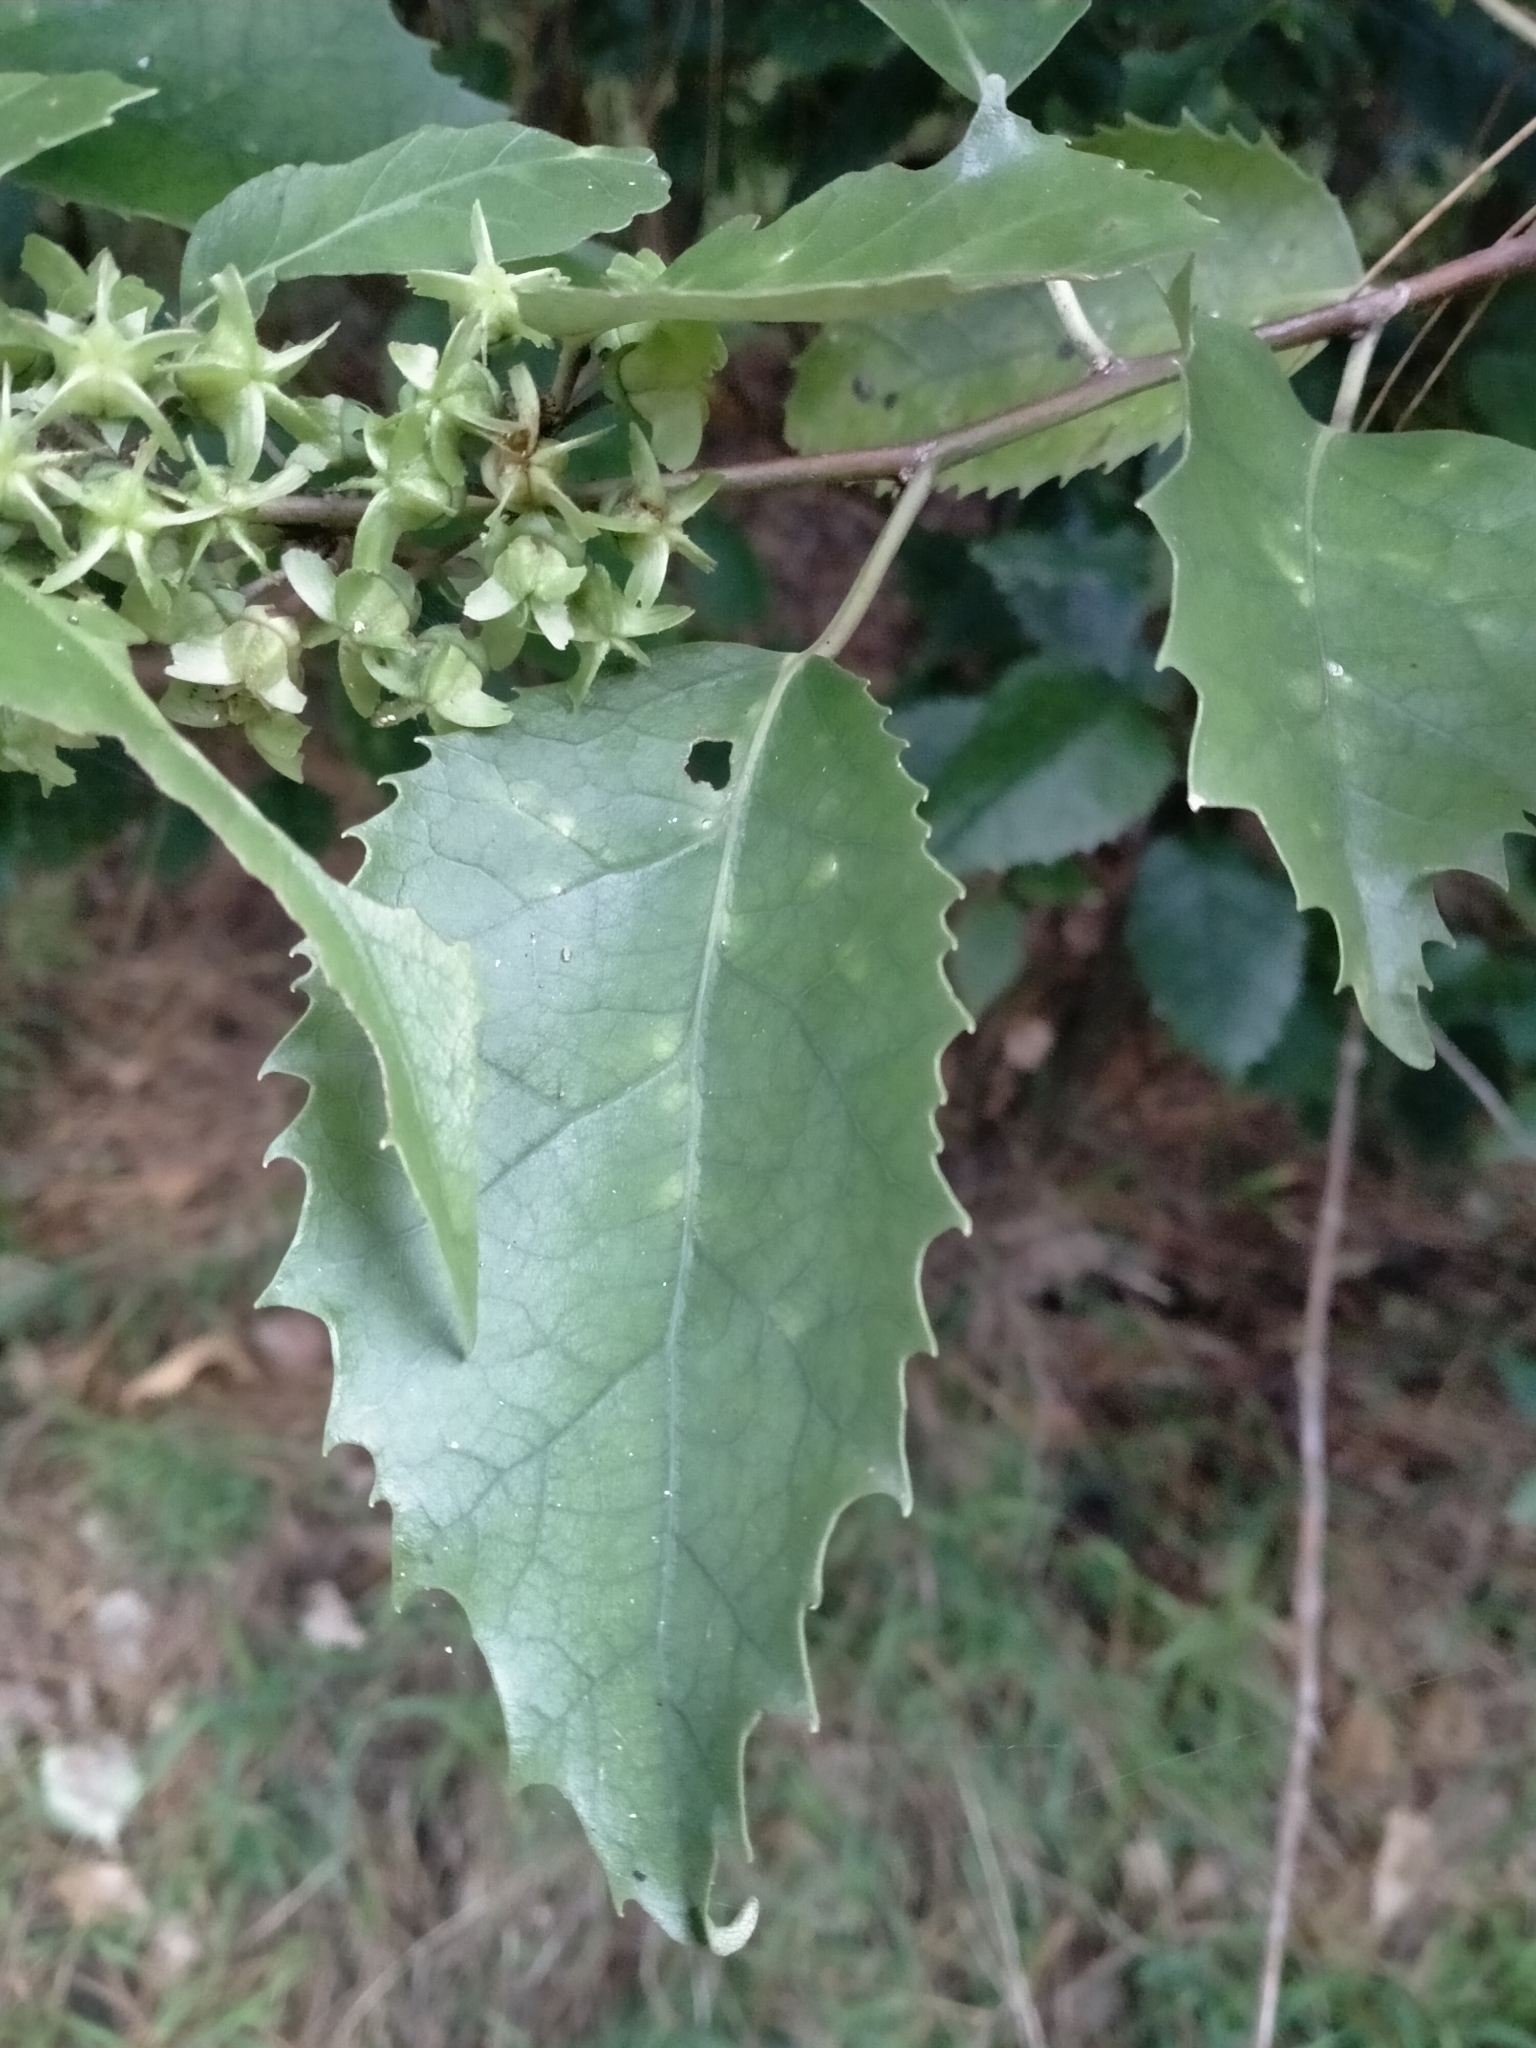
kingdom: Plantae
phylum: Tracheophyta
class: Magnoliopsida
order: Malvales
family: Malvaceae
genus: Hoheria
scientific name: Hoheria populnea
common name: Lacebark
